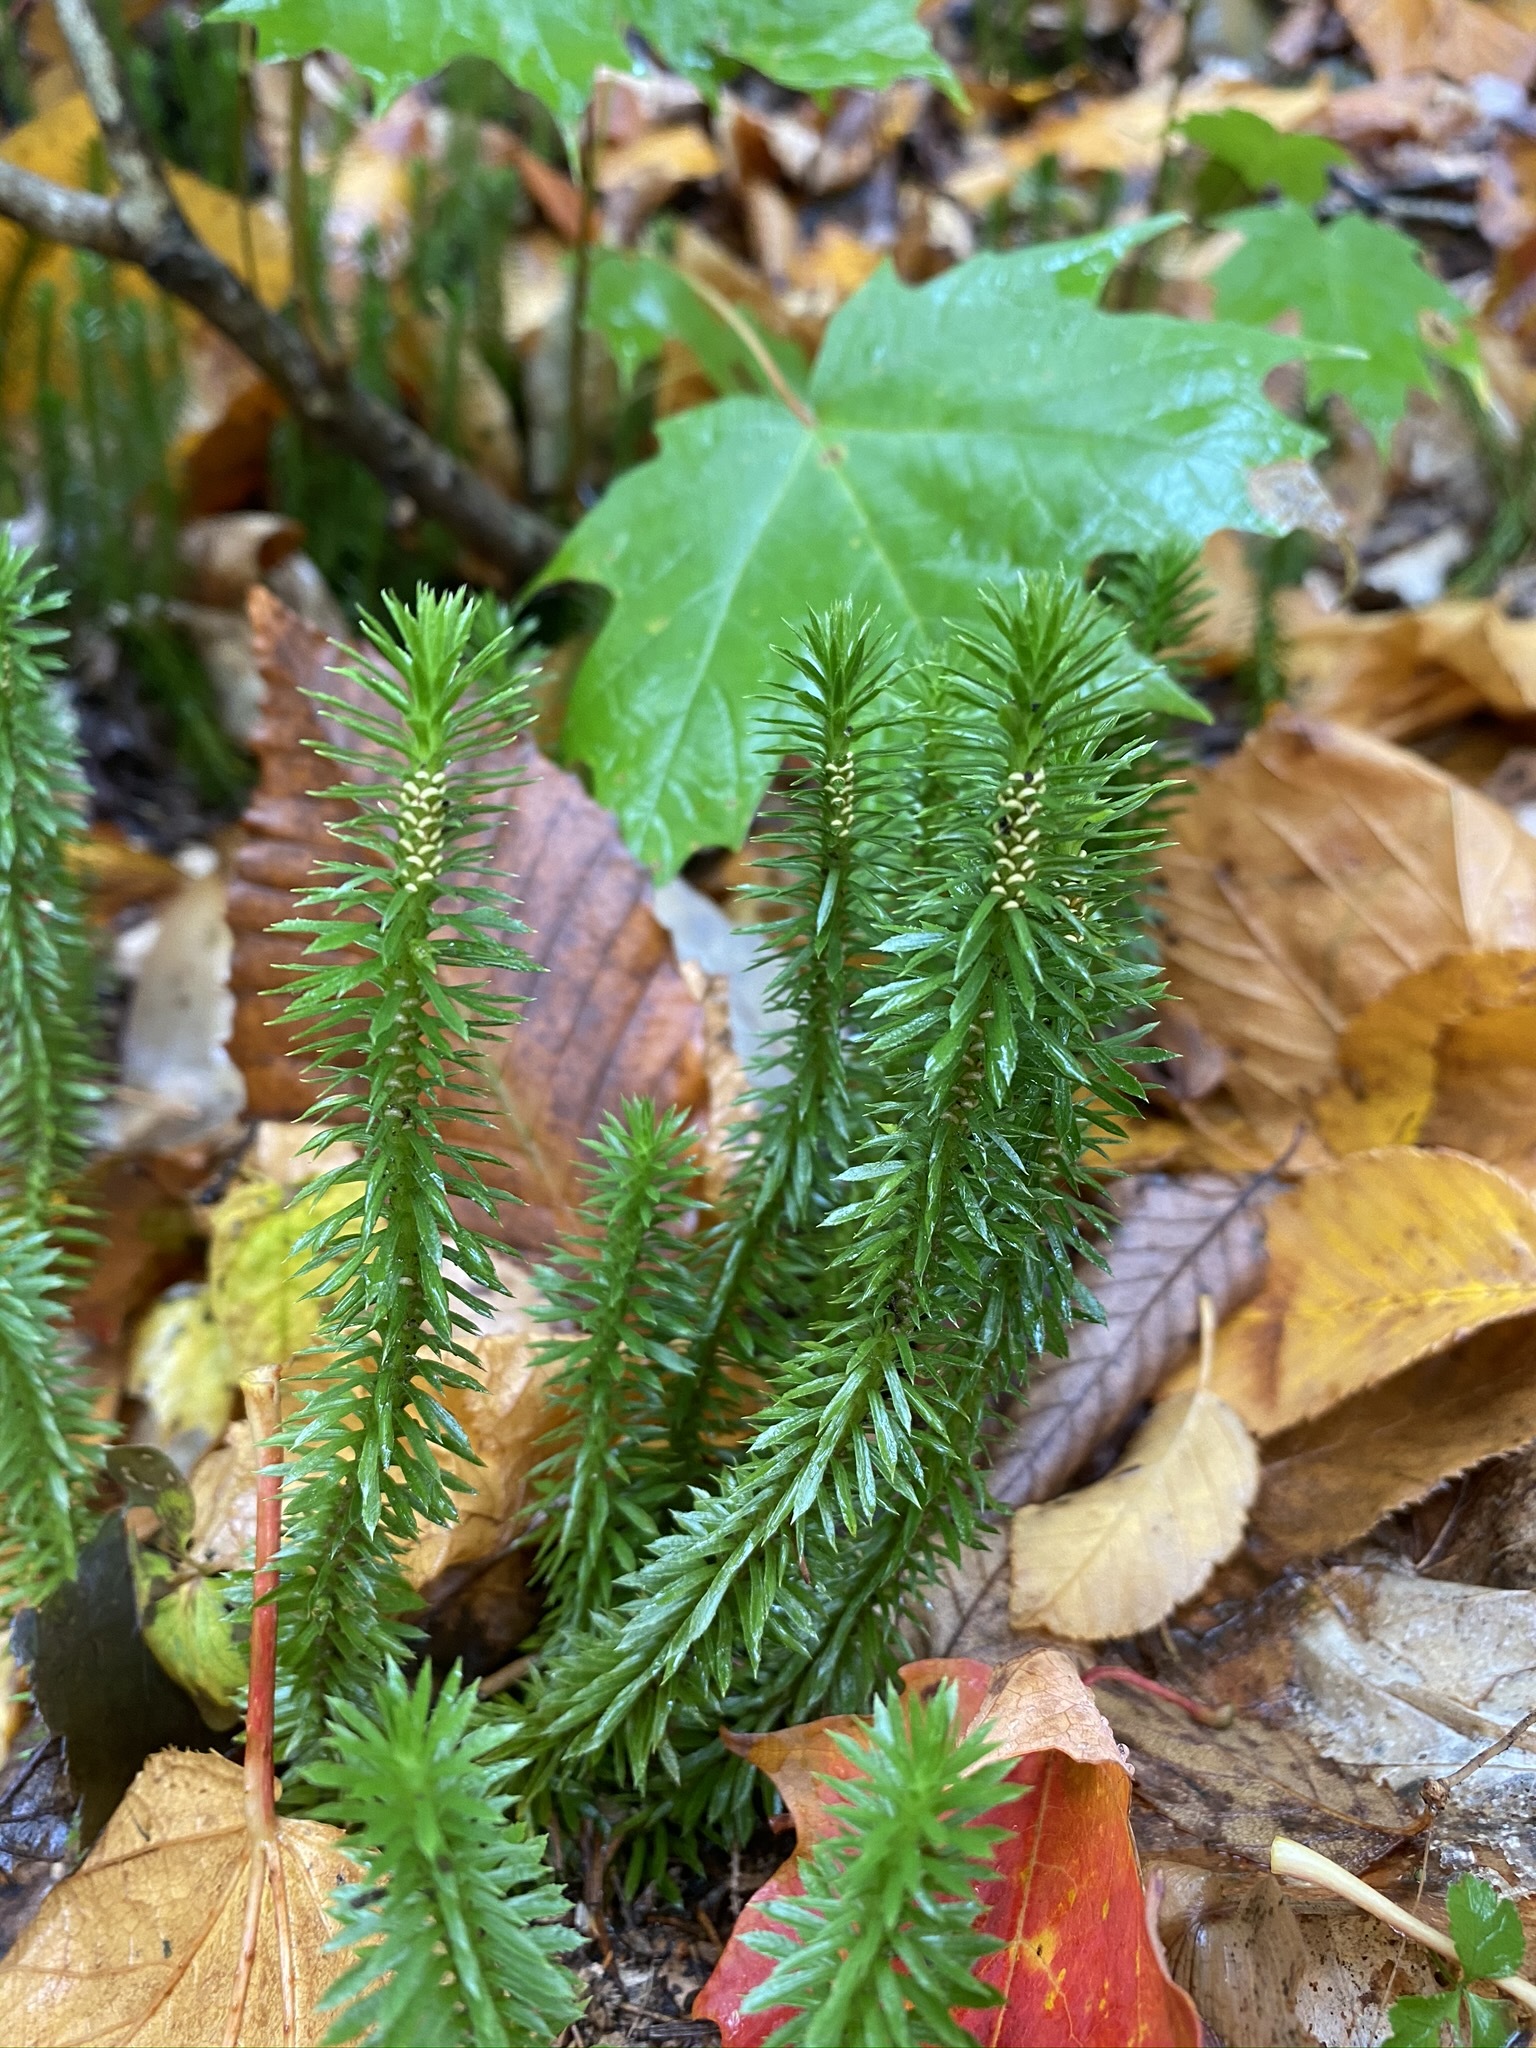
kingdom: Plantae
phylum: Tracheophyta
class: Lycopodiopsida
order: Lycopodiales
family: Lycopodiaceae
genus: Huperzia
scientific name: Huperzia lucidula
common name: Shining clubmoss
